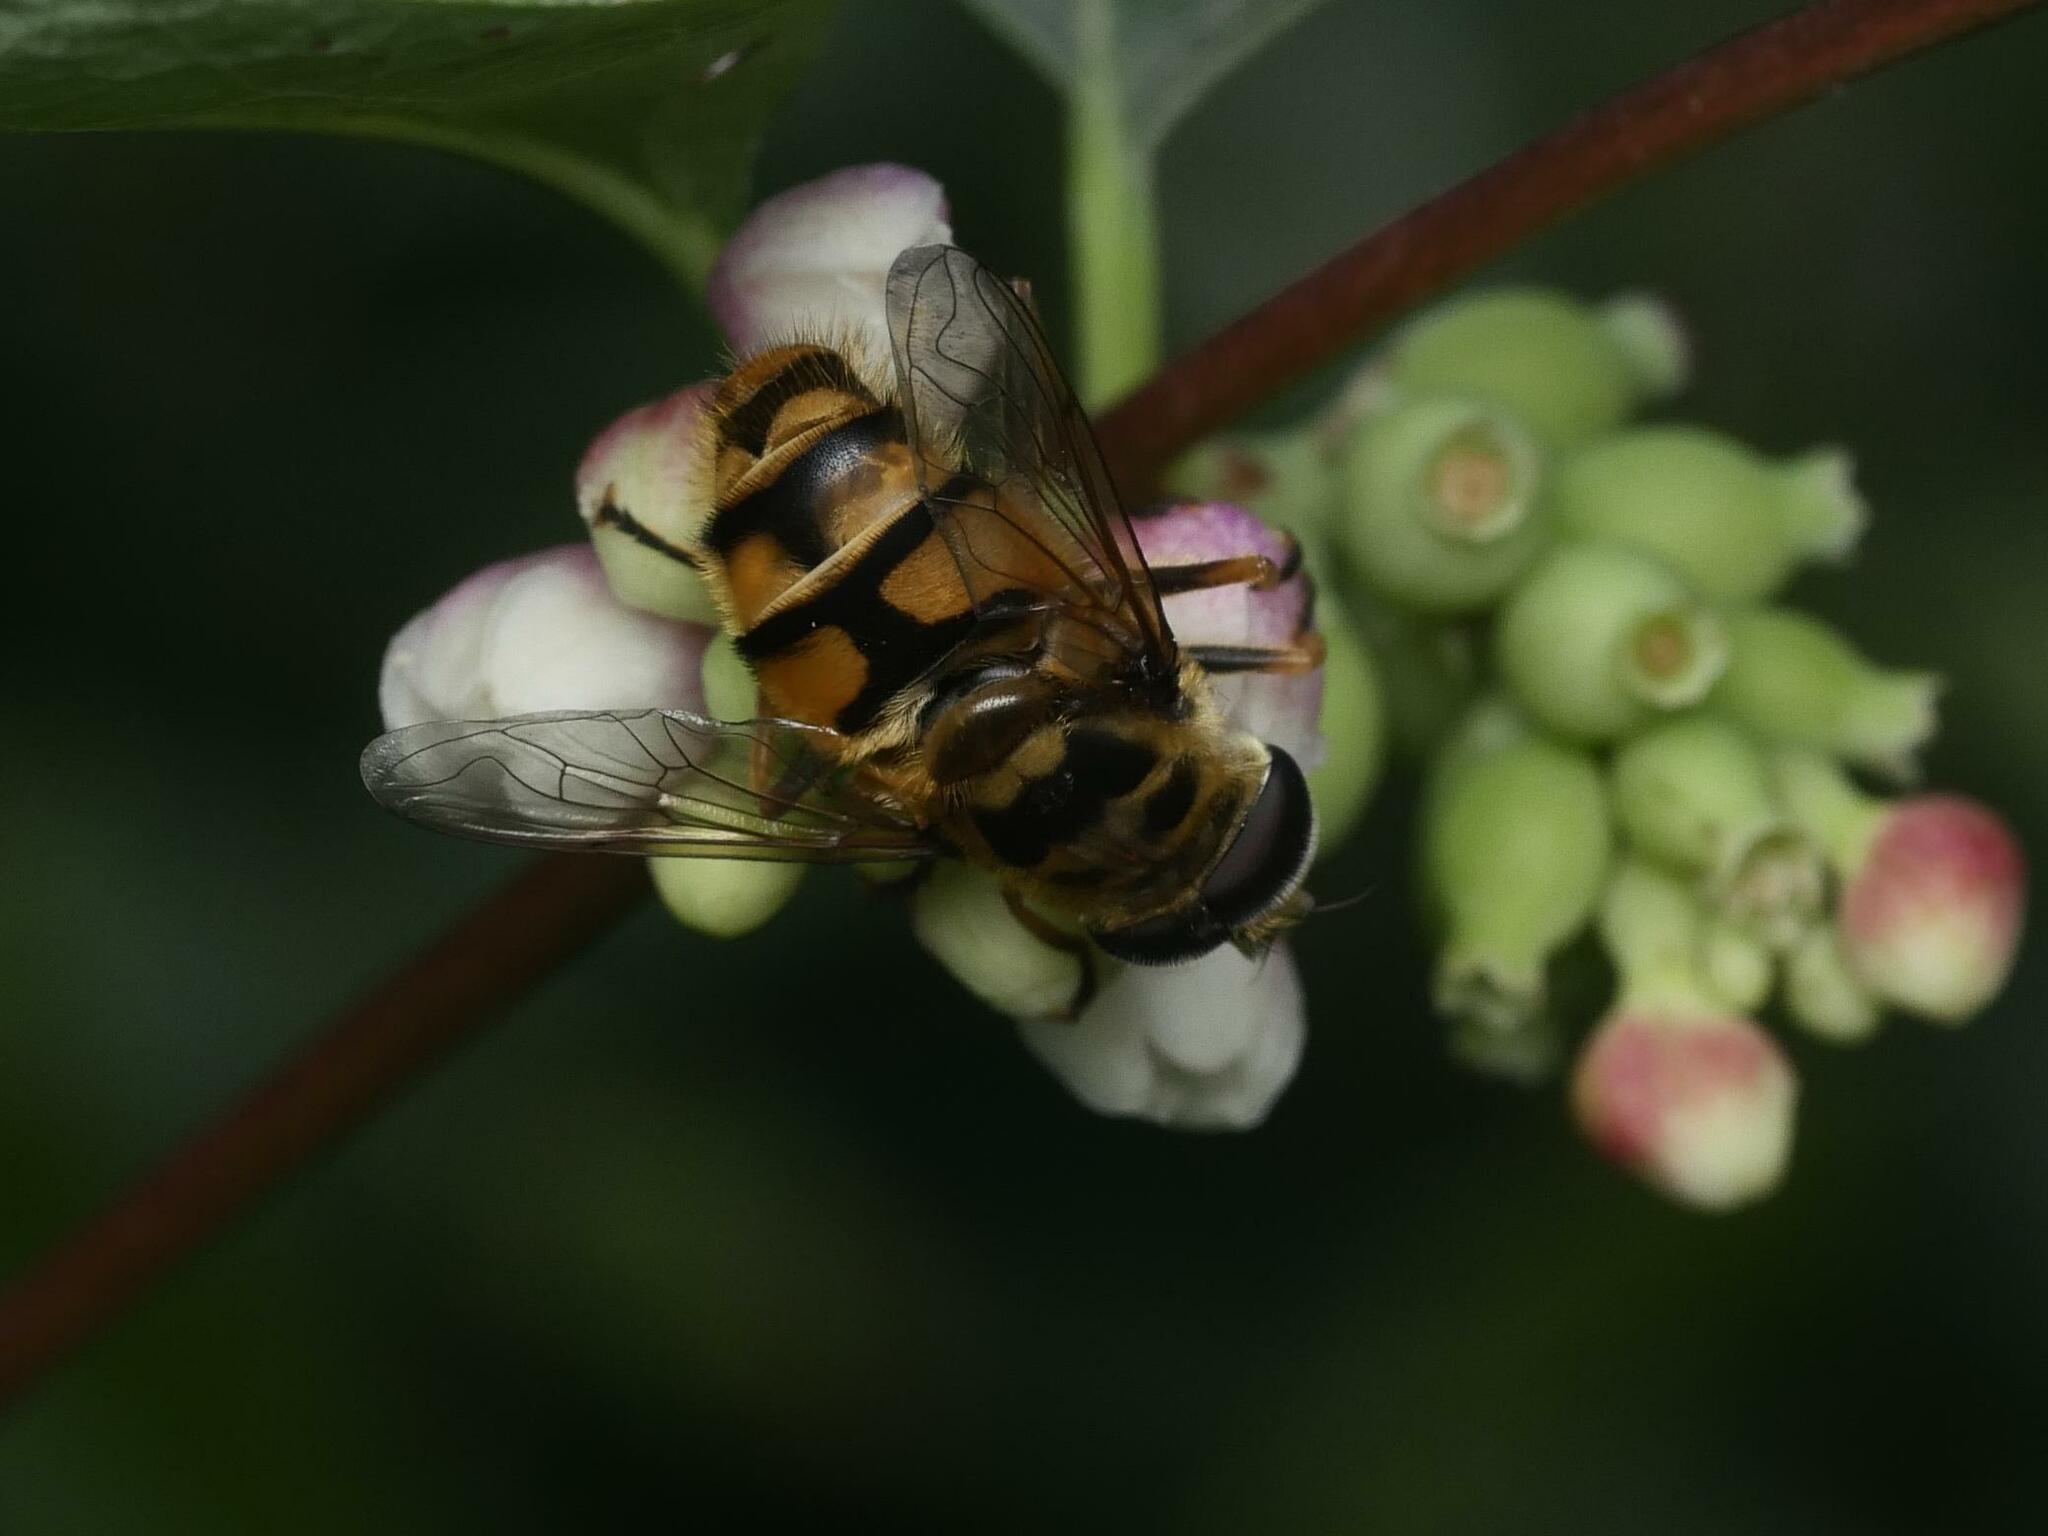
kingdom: Animalia
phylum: Arthropoda
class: Insecta
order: Diptera
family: Syrphidae
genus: Myathropa
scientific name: Myathropa florea
